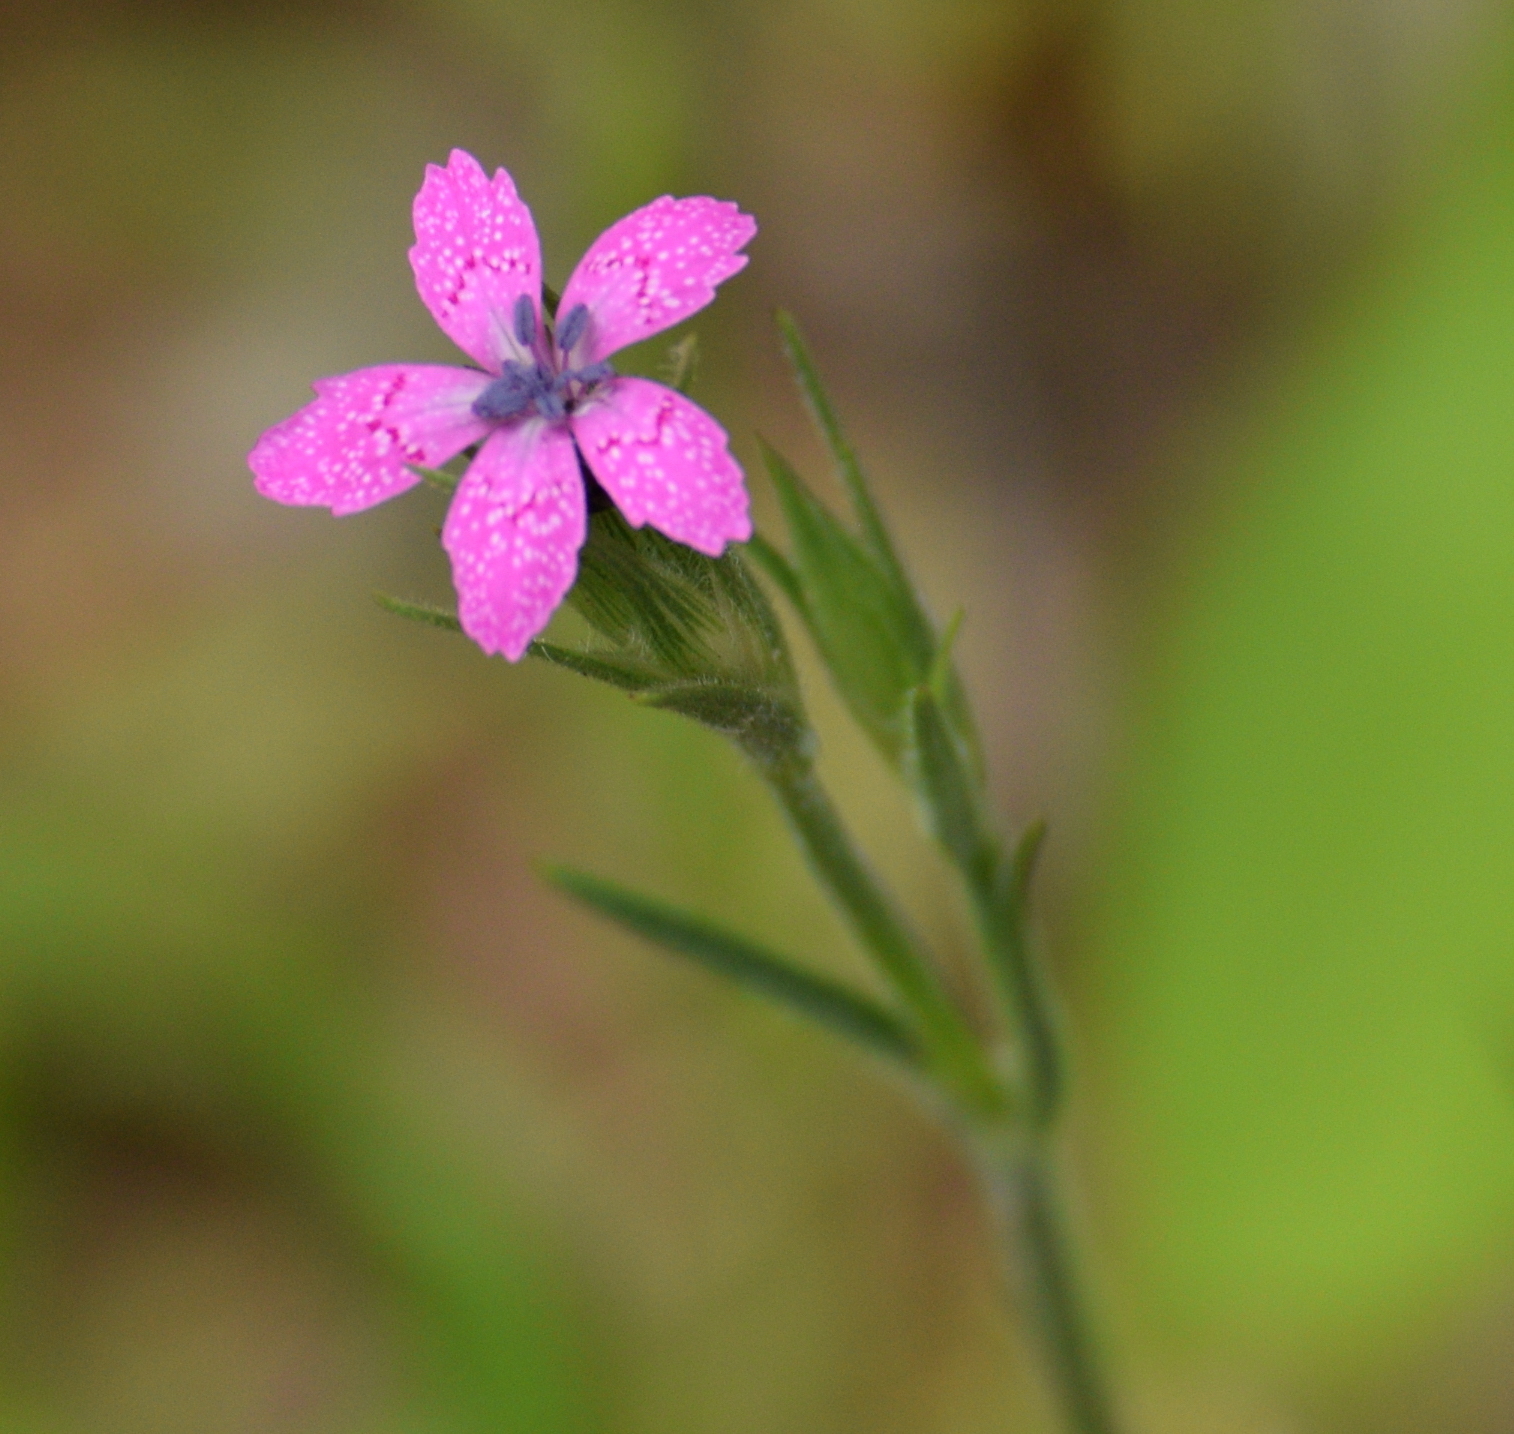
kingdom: Plantae
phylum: Tracheophyta
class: Magnoliopsida
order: Caryophyllales
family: Caryophyllaceae
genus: Dianthus
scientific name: Dianthus armeria
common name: Deptford pink
